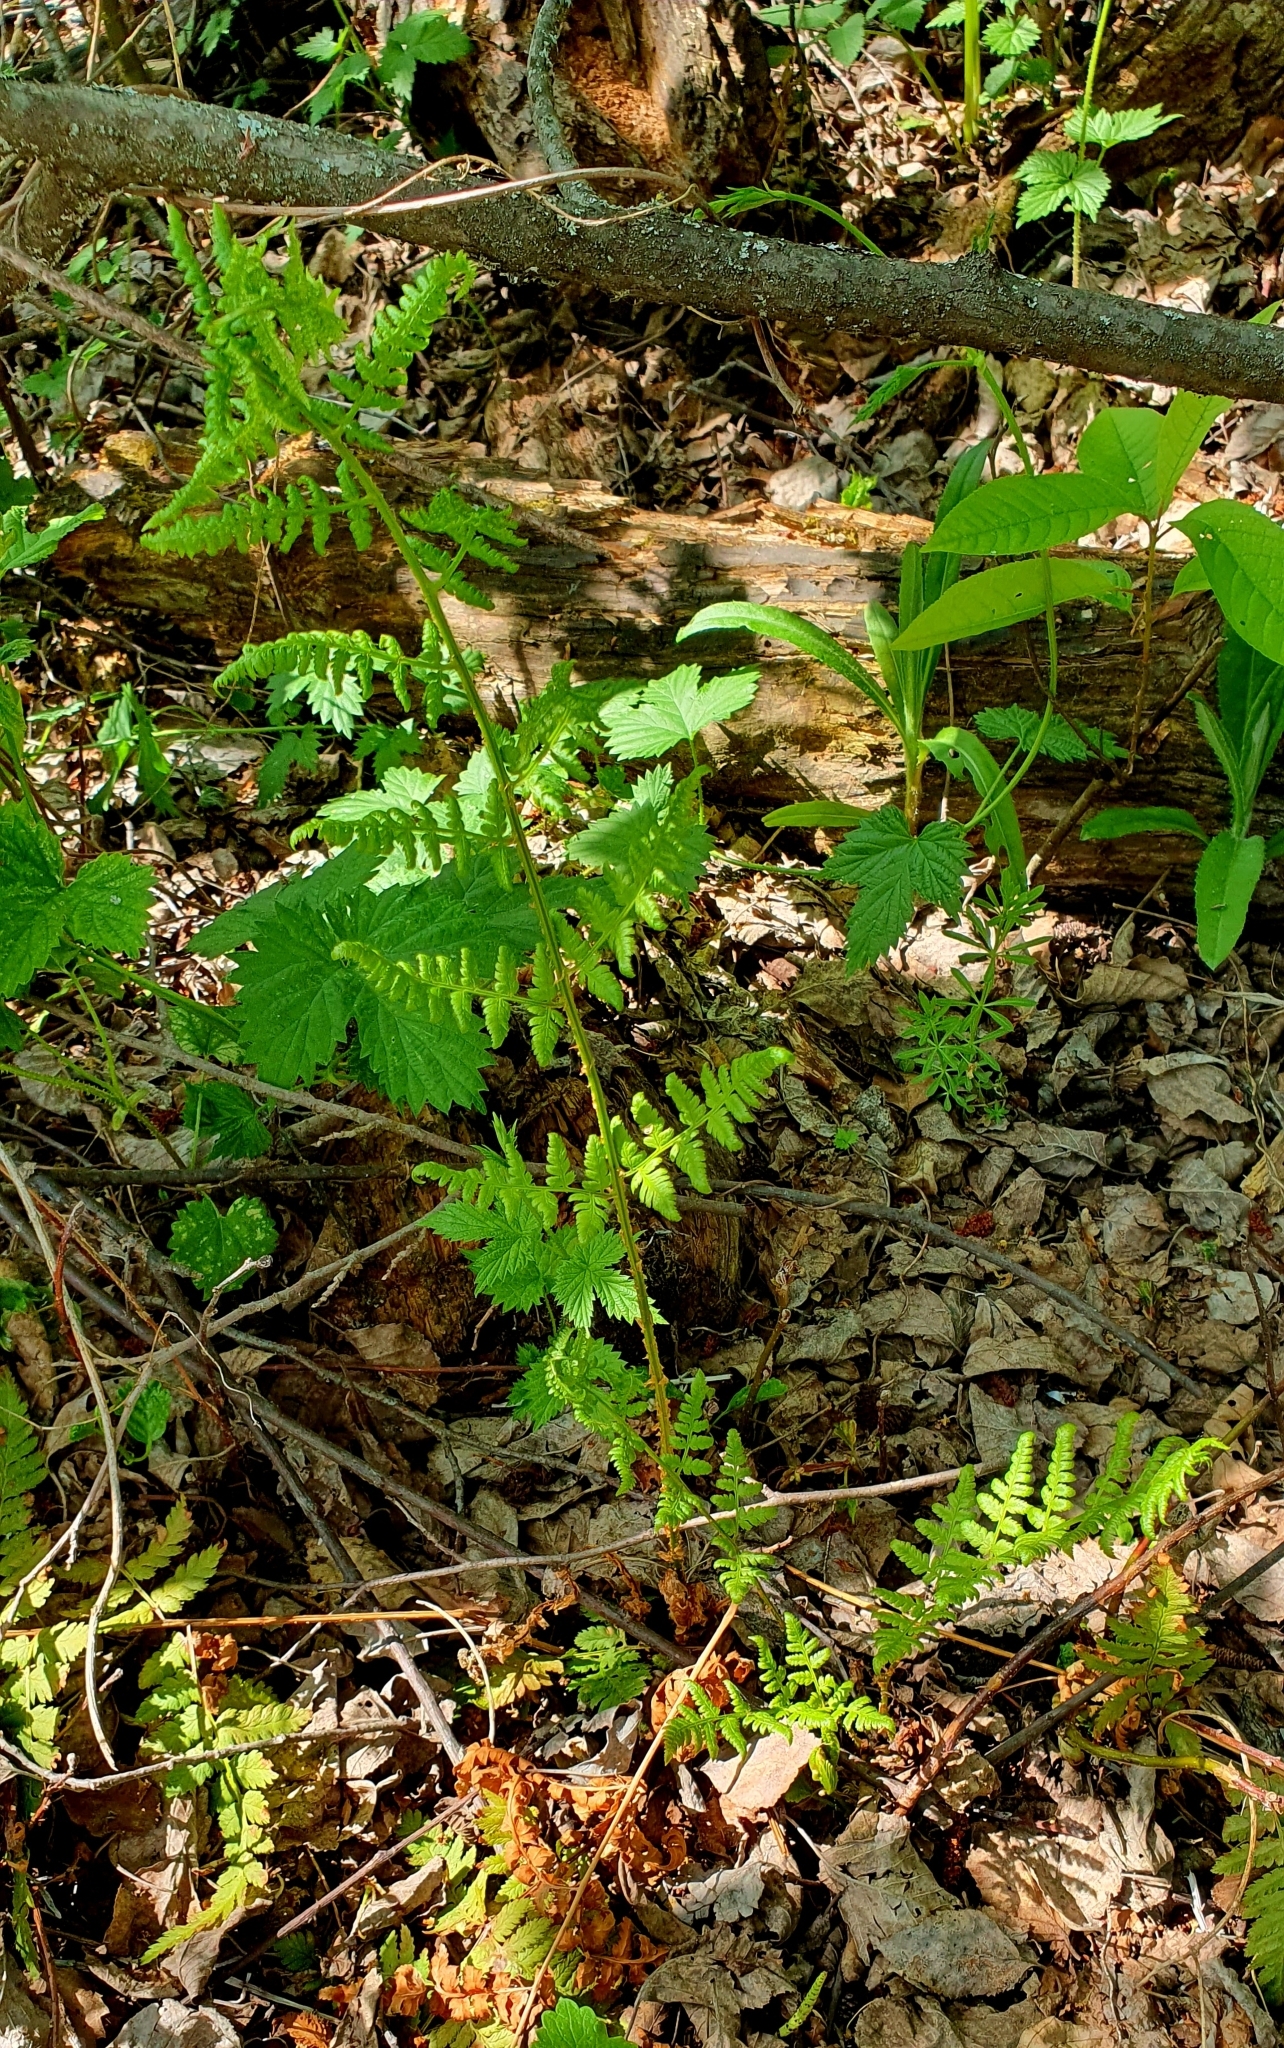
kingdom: Plantae
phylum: Tracheophyta
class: Polypodiopsida
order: Polypodiales
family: Dryopteridaceae
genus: Dryopteris
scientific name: Dryopteris carthusiana
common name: Narrow buckler-fern
